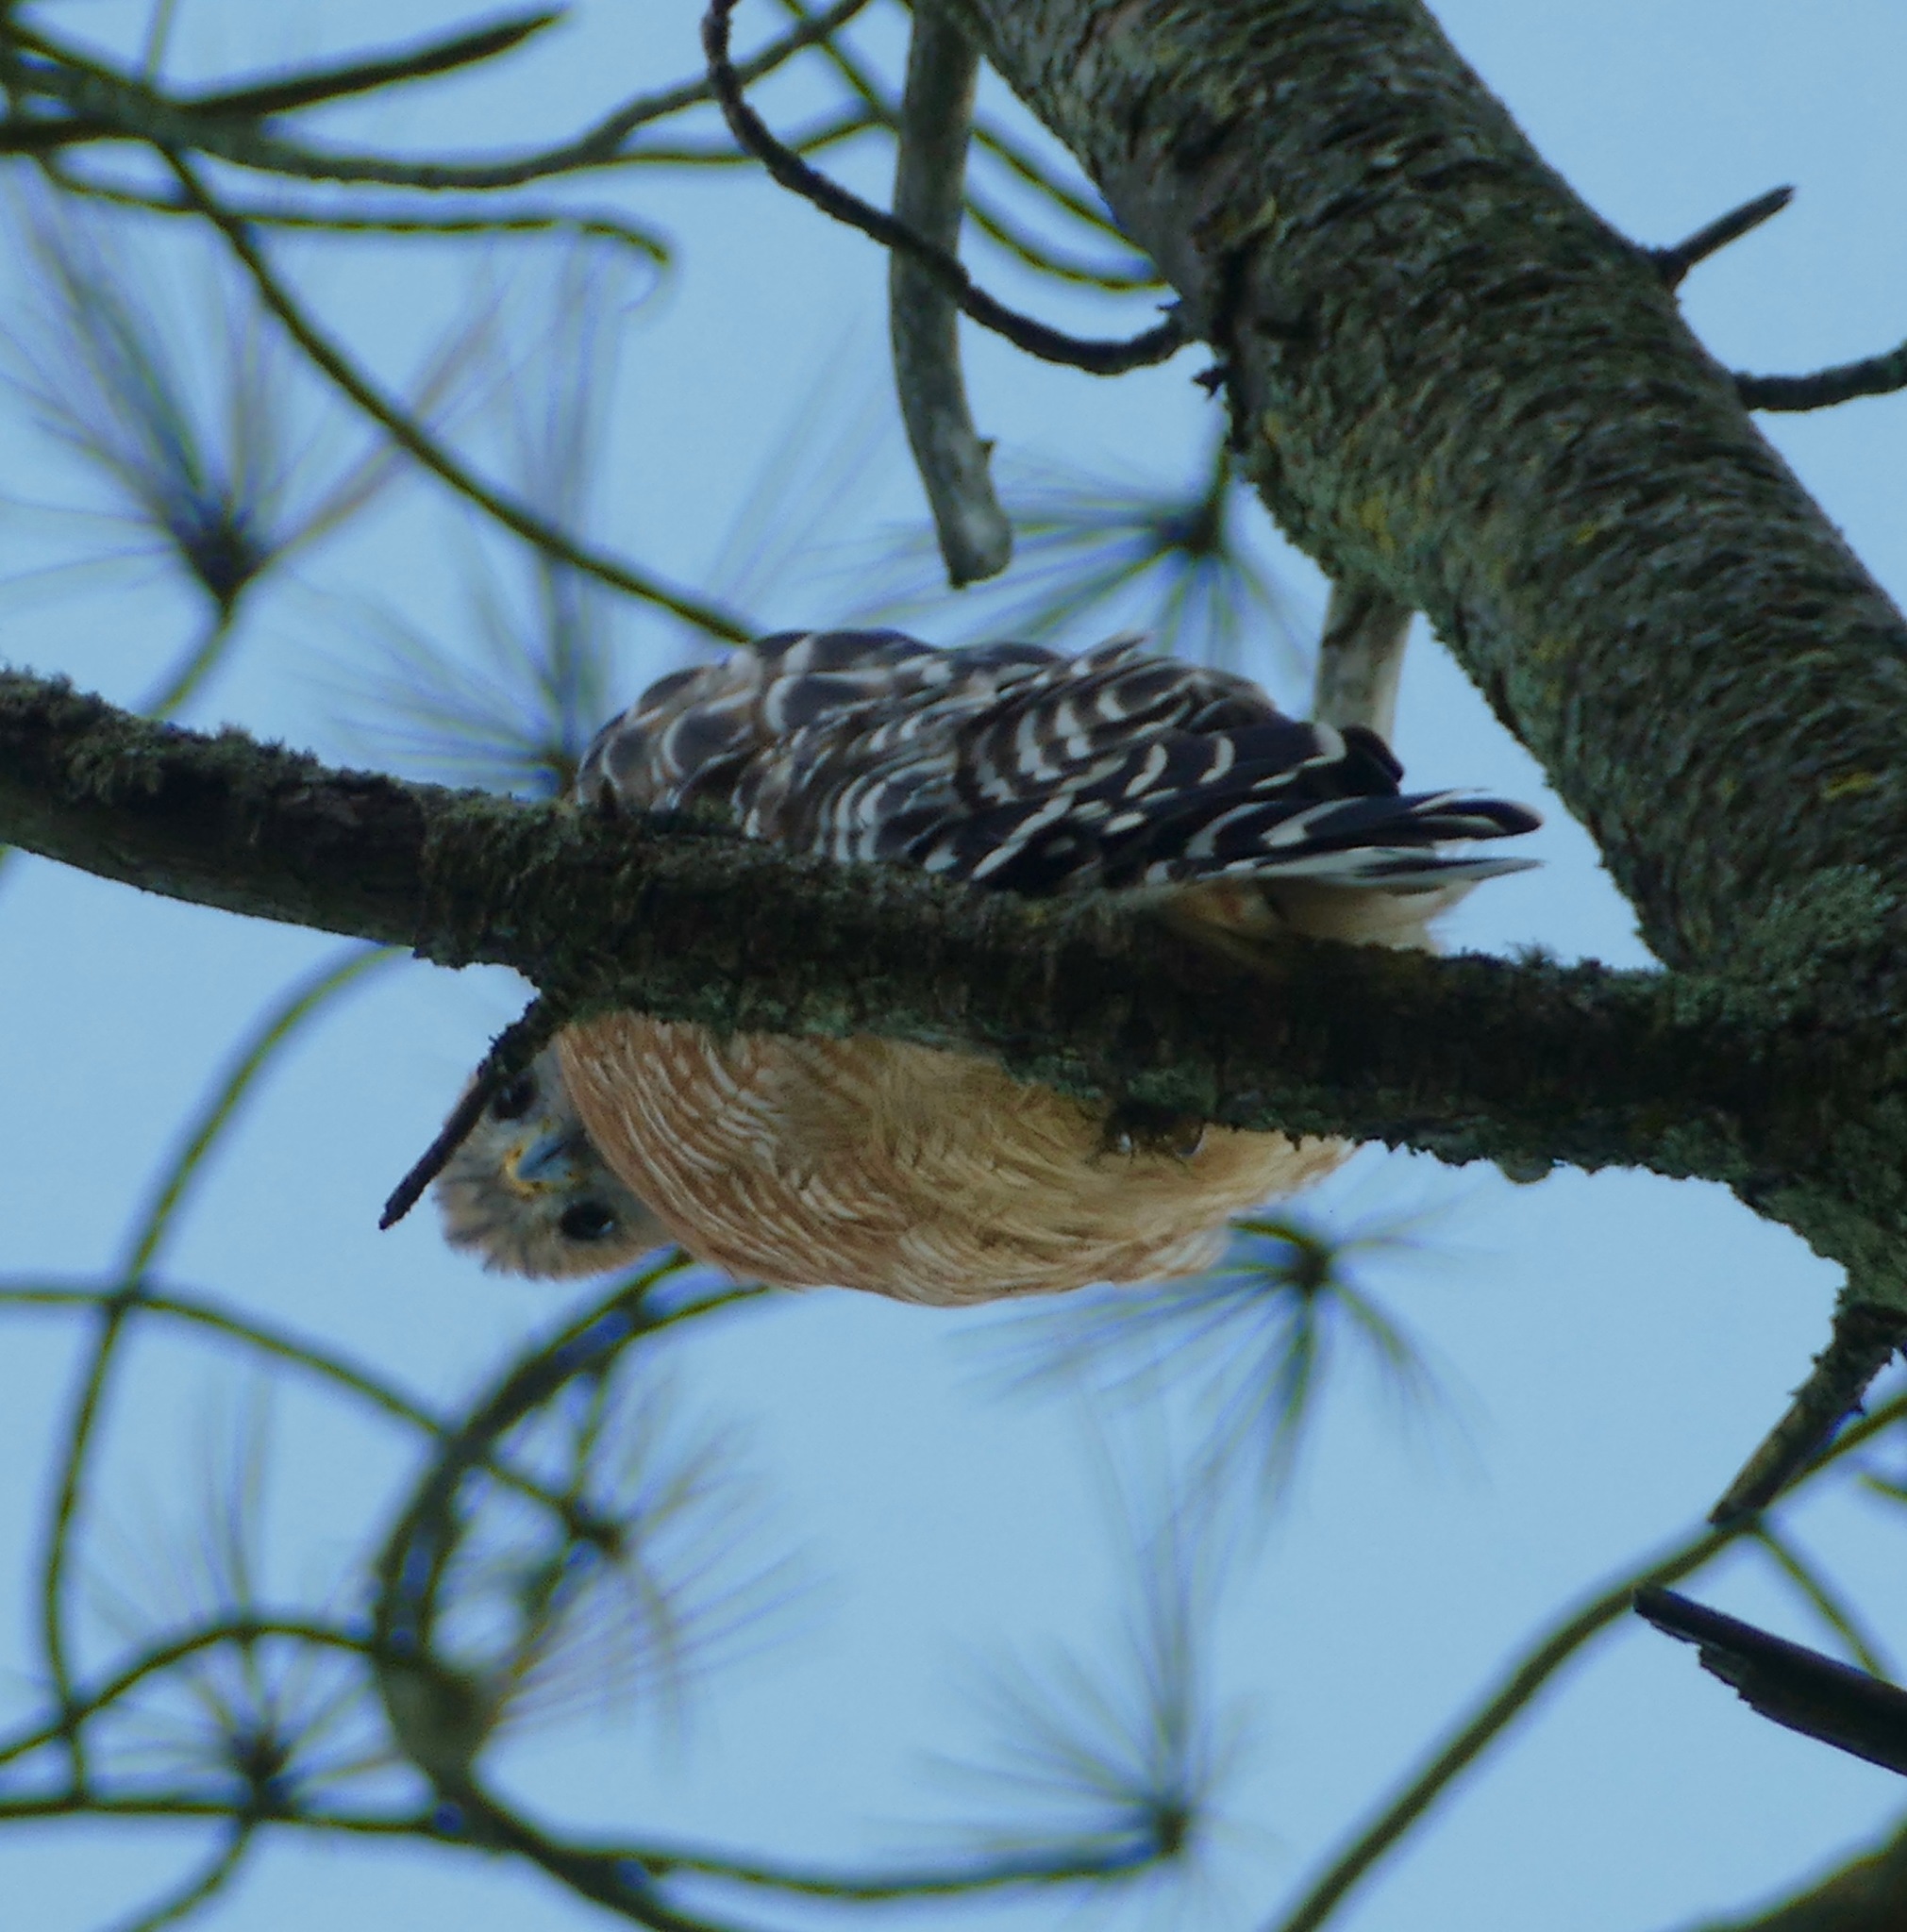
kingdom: Animalia
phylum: Chordata
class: Aves
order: Accipitriformes
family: Accipitridae
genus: Buteo
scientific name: Buteo lineatus
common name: Red-shouldered hawk
